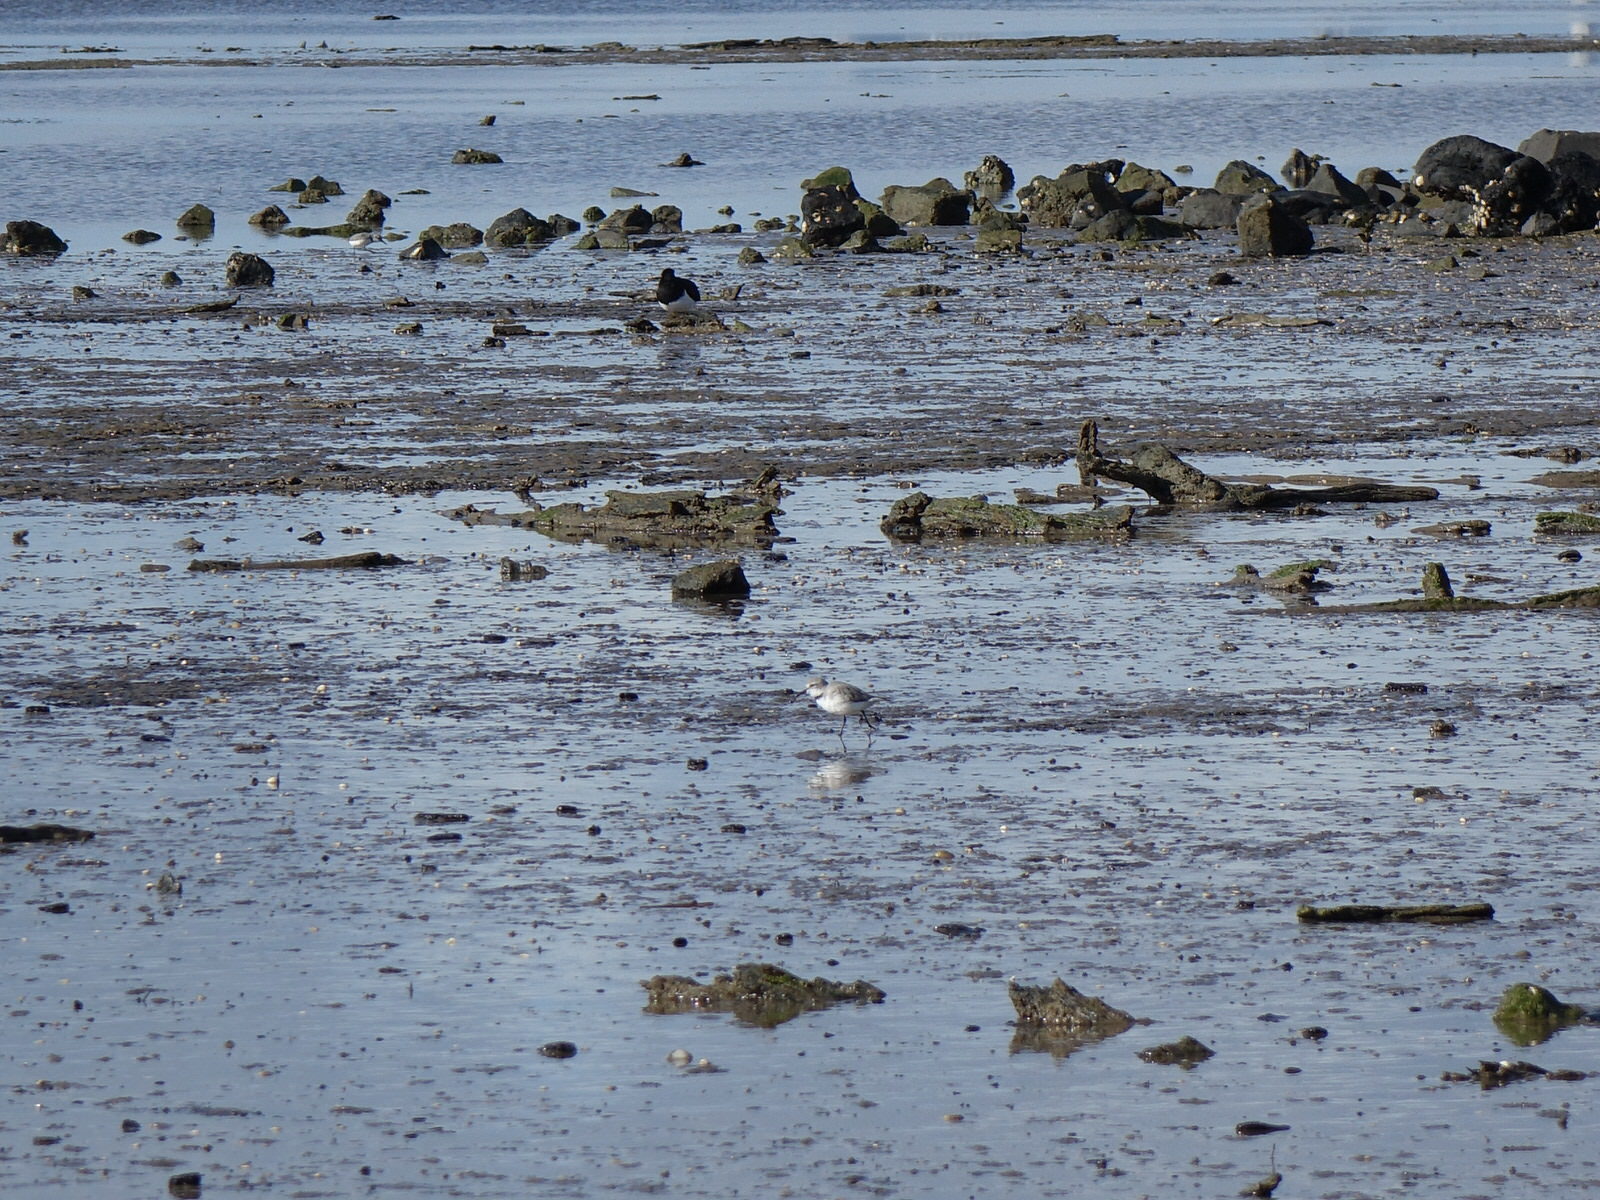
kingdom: Animalia
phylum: Chordata
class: Aves
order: Charadriiformes
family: Charadriidae
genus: Anarhynchus
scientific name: Anarhynchus frontalis
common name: Wrybill
